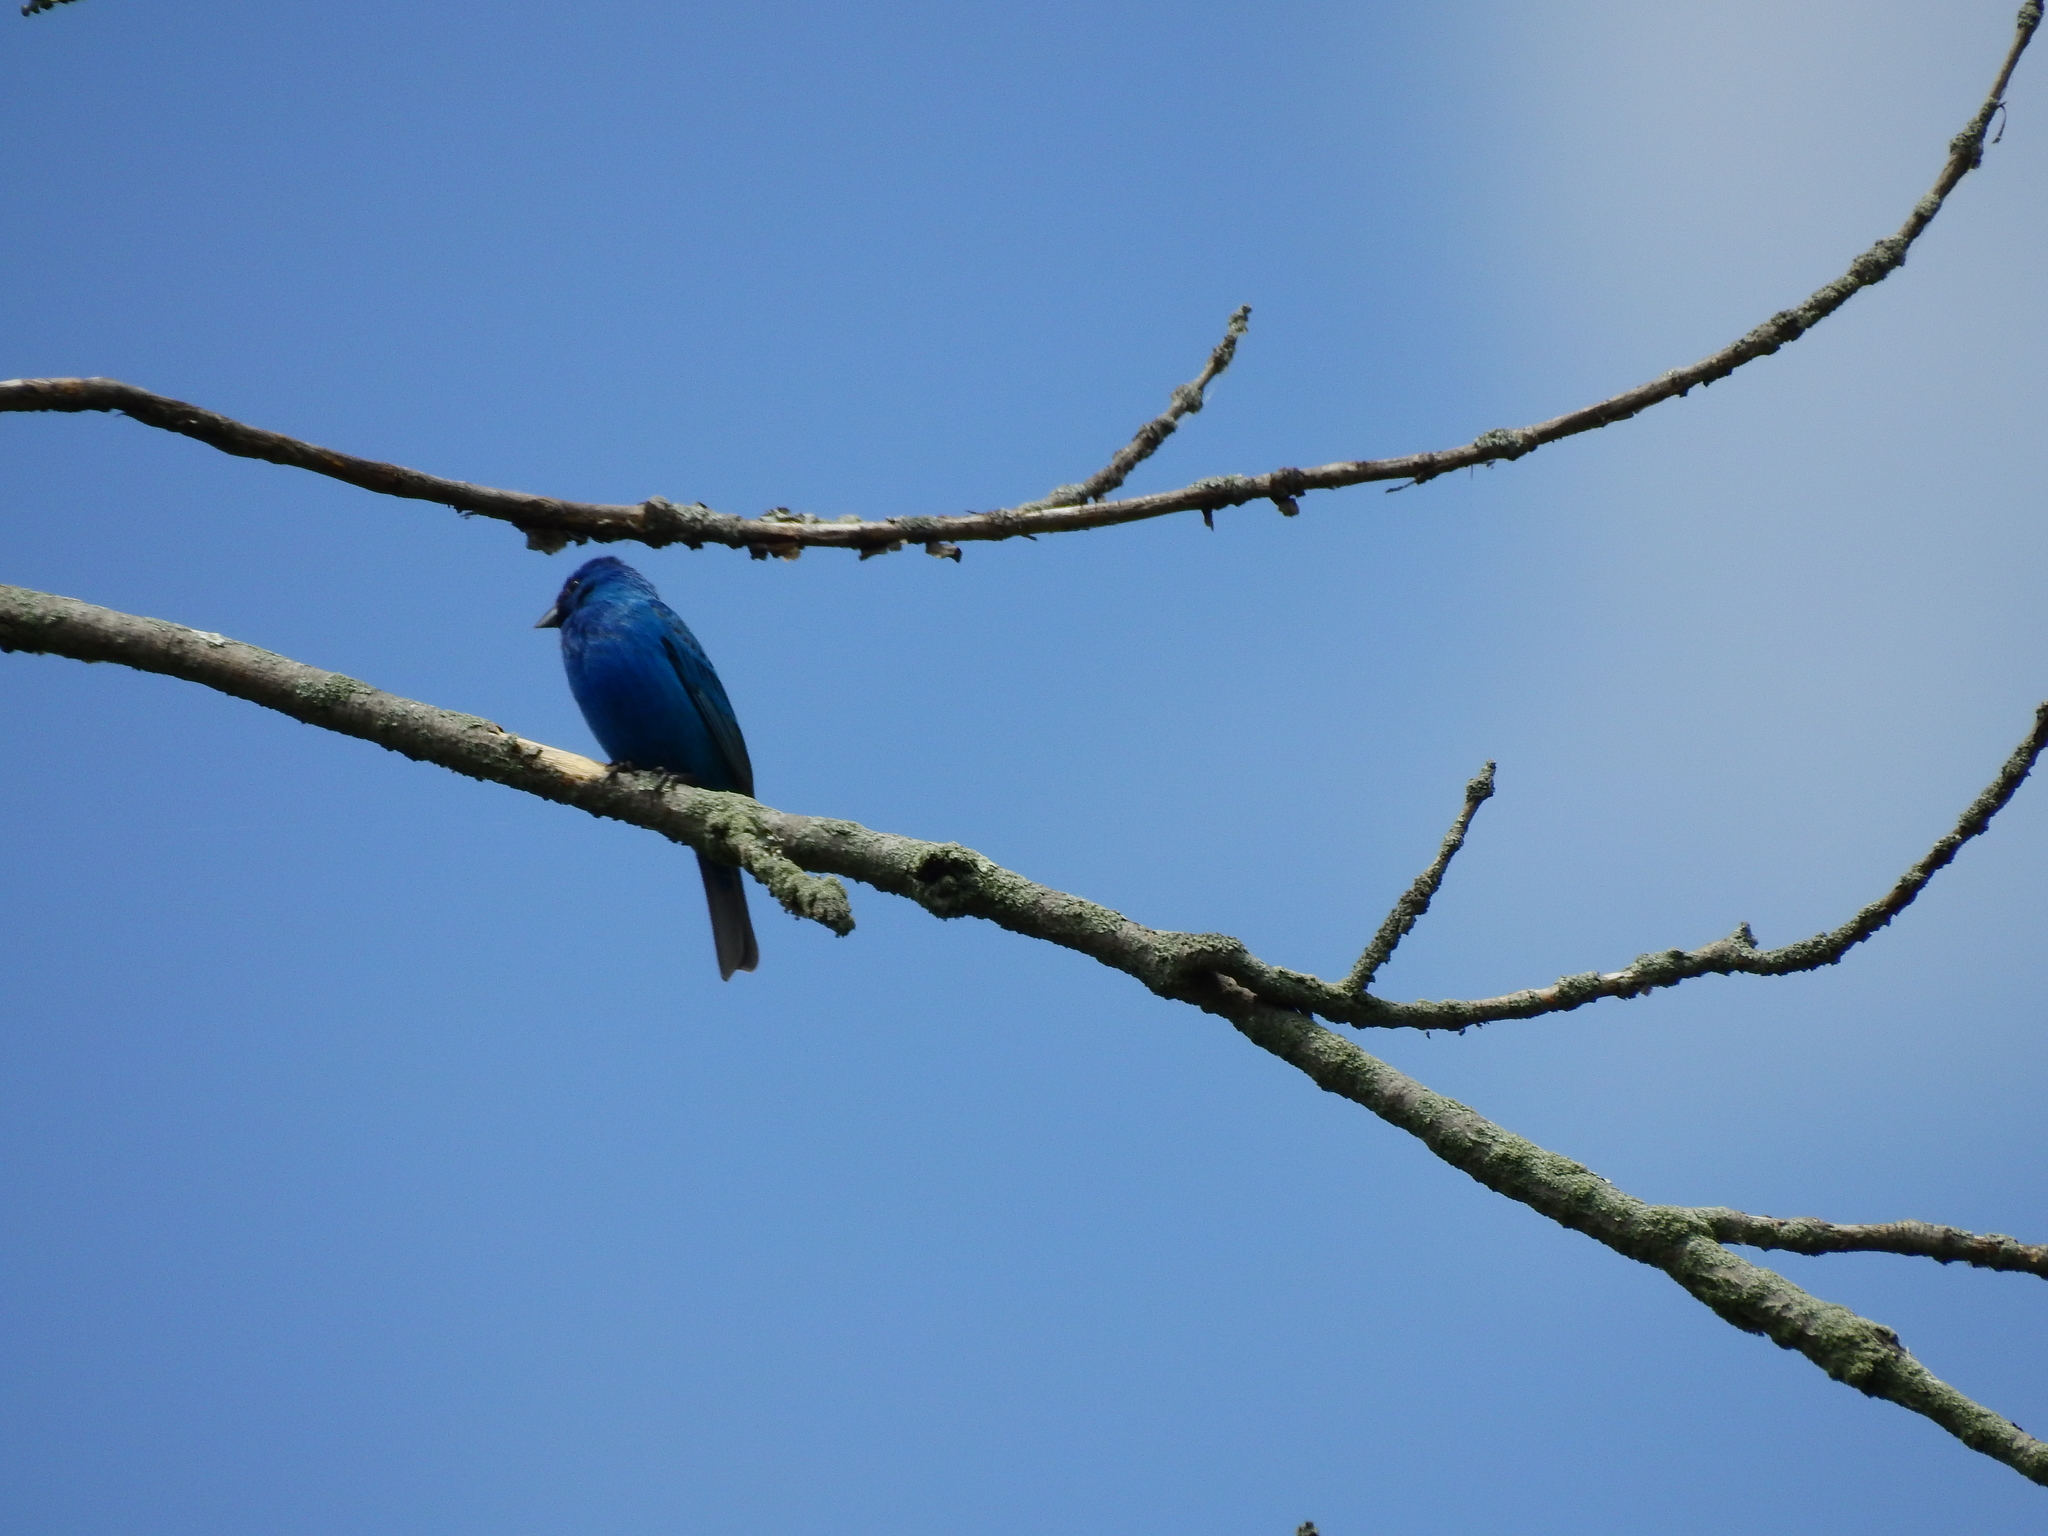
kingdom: Animalia
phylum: Chordata
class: Aves
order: Passeriformes
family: Cardinalidae
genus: Passerina
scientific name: Passerina cyanea
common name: Indigo bunting
